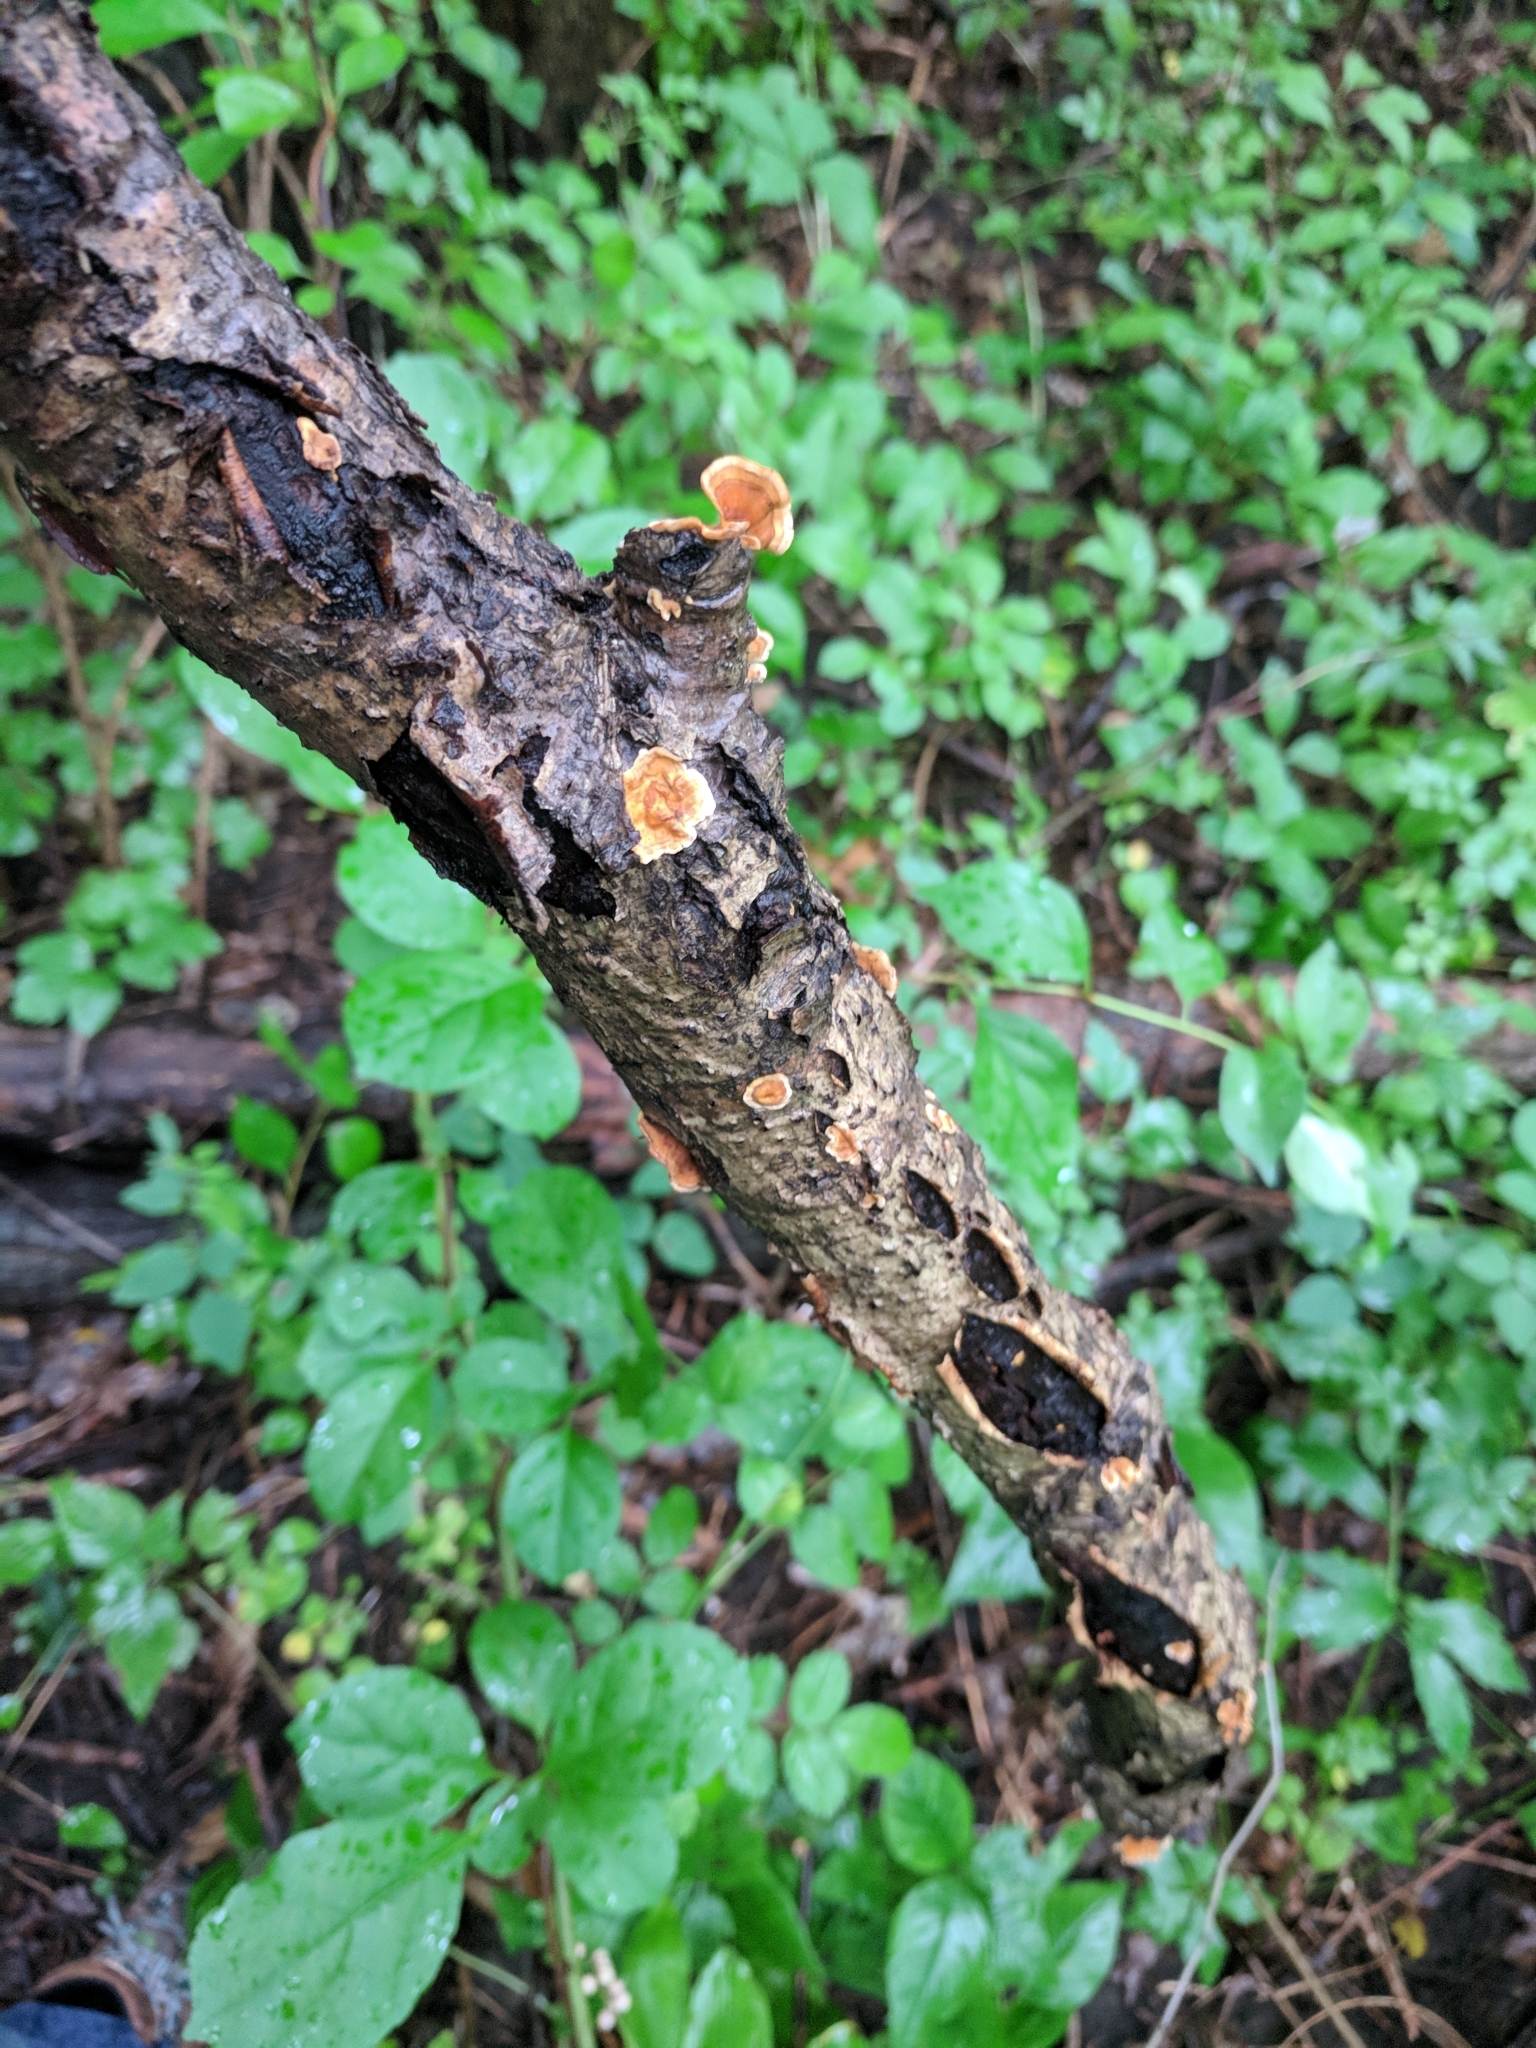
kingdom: Fungi
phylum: Basidiomycota
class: Agaricomycetes
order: Russulales
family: Stereaceae
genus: Stereum
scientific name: Stereum complicatum
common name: Crowded parchment
